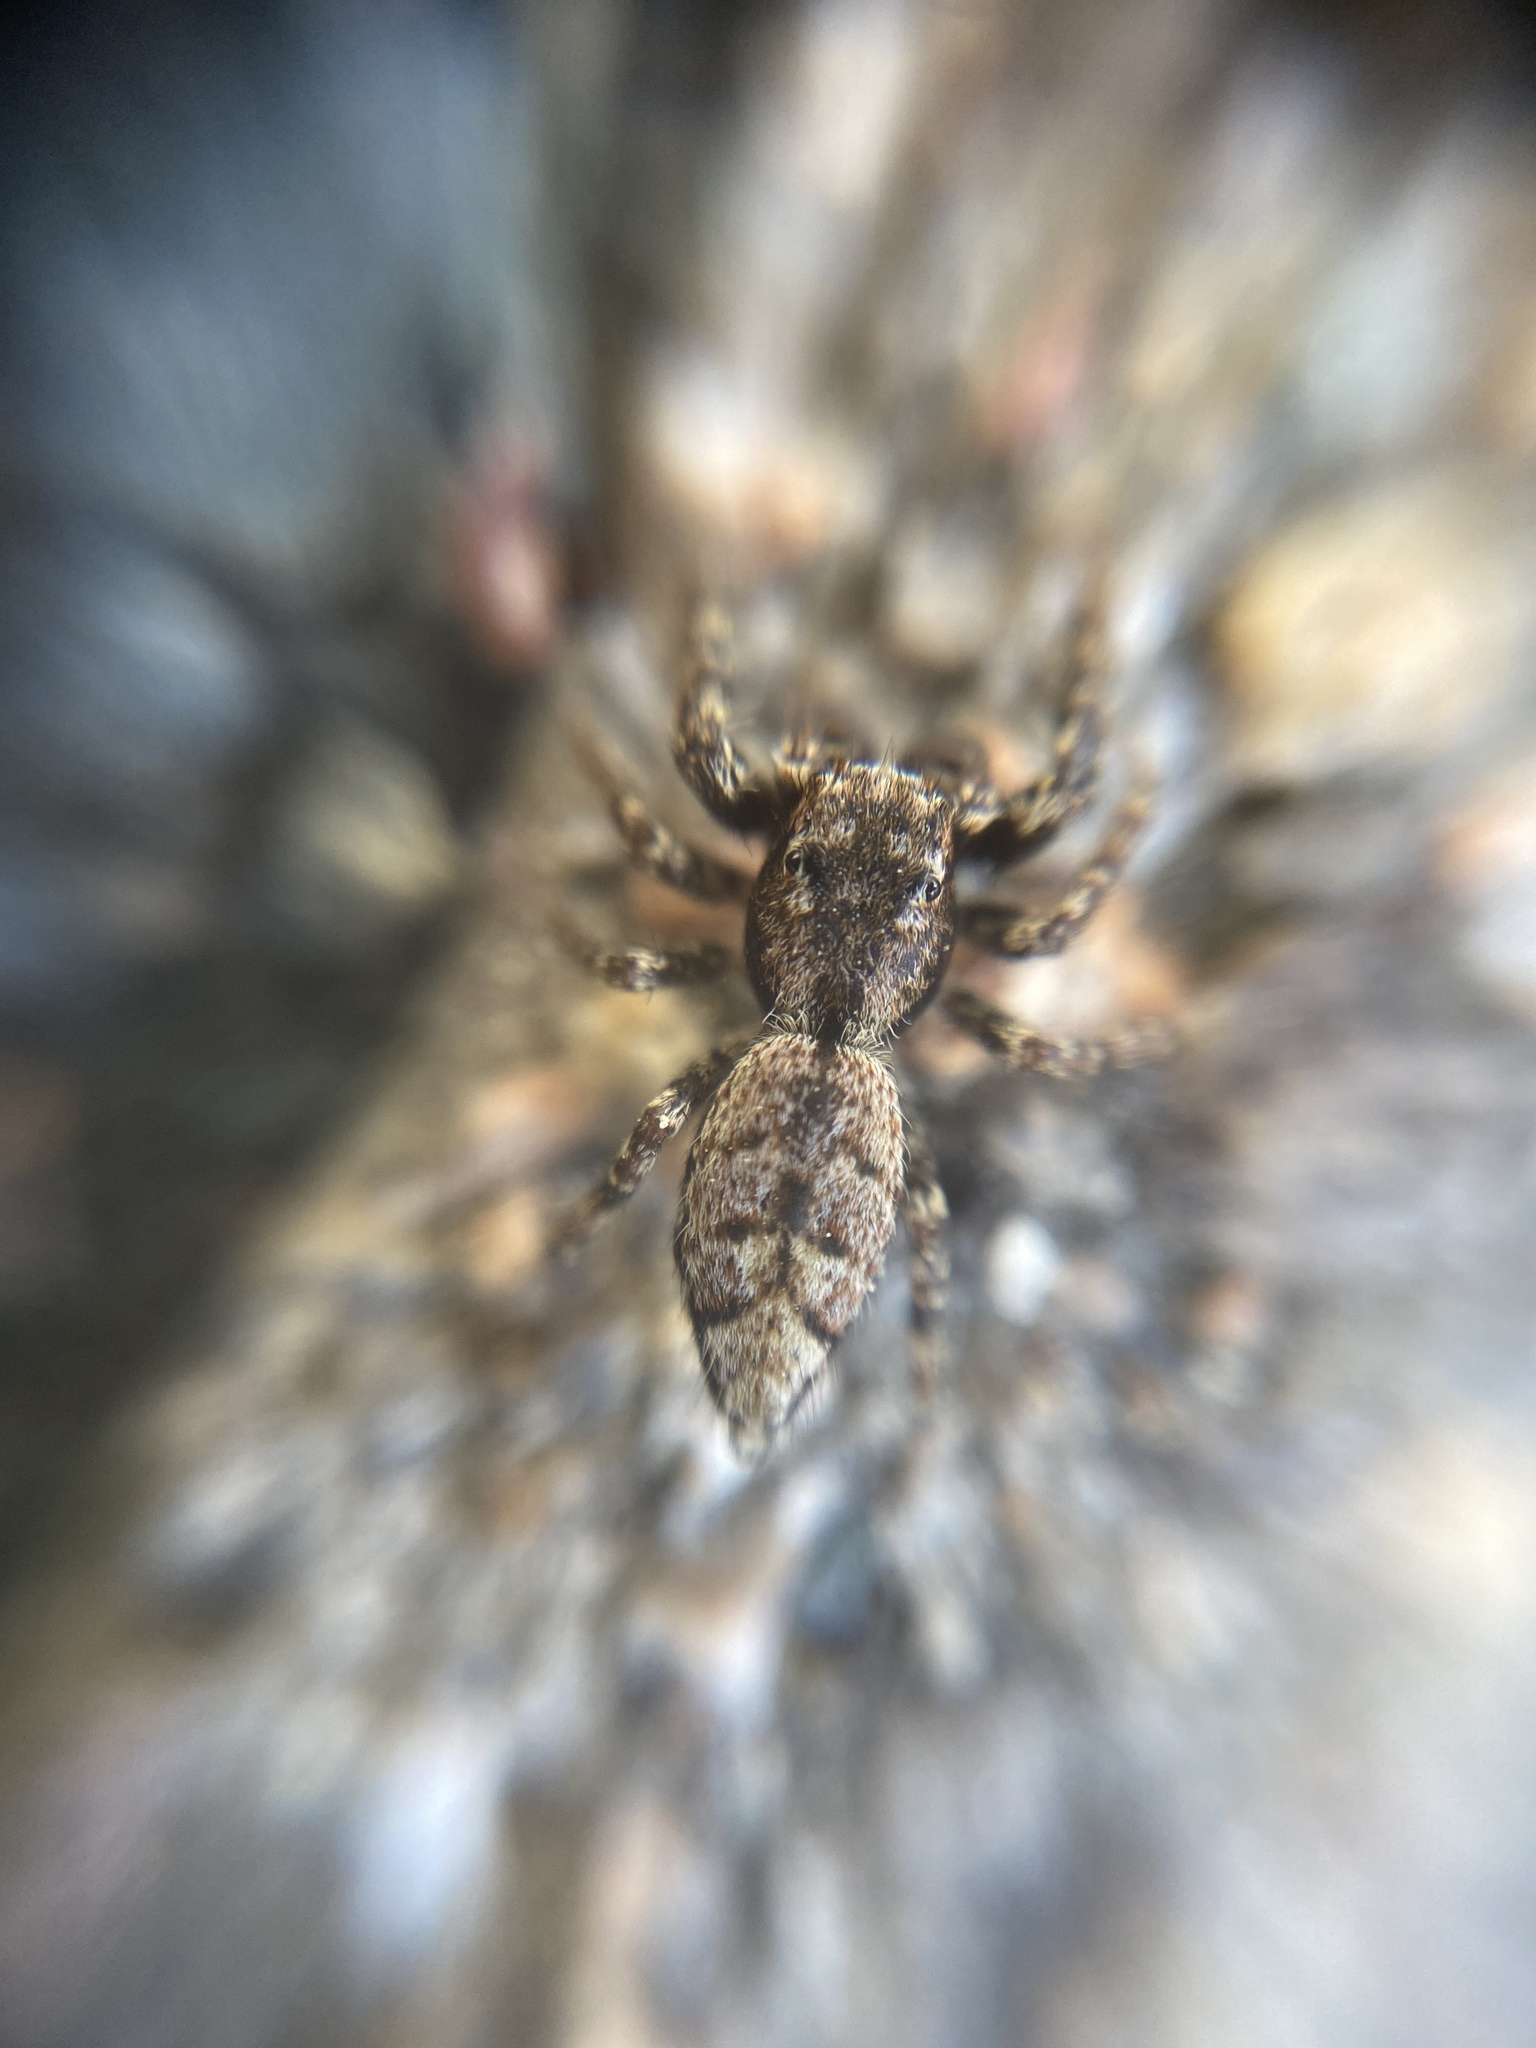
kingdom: Animalia
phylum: Arthropoda
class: Arachnida
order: Araneae
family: Salticidae
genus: Marpissa
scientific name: Marpissa muscosa
